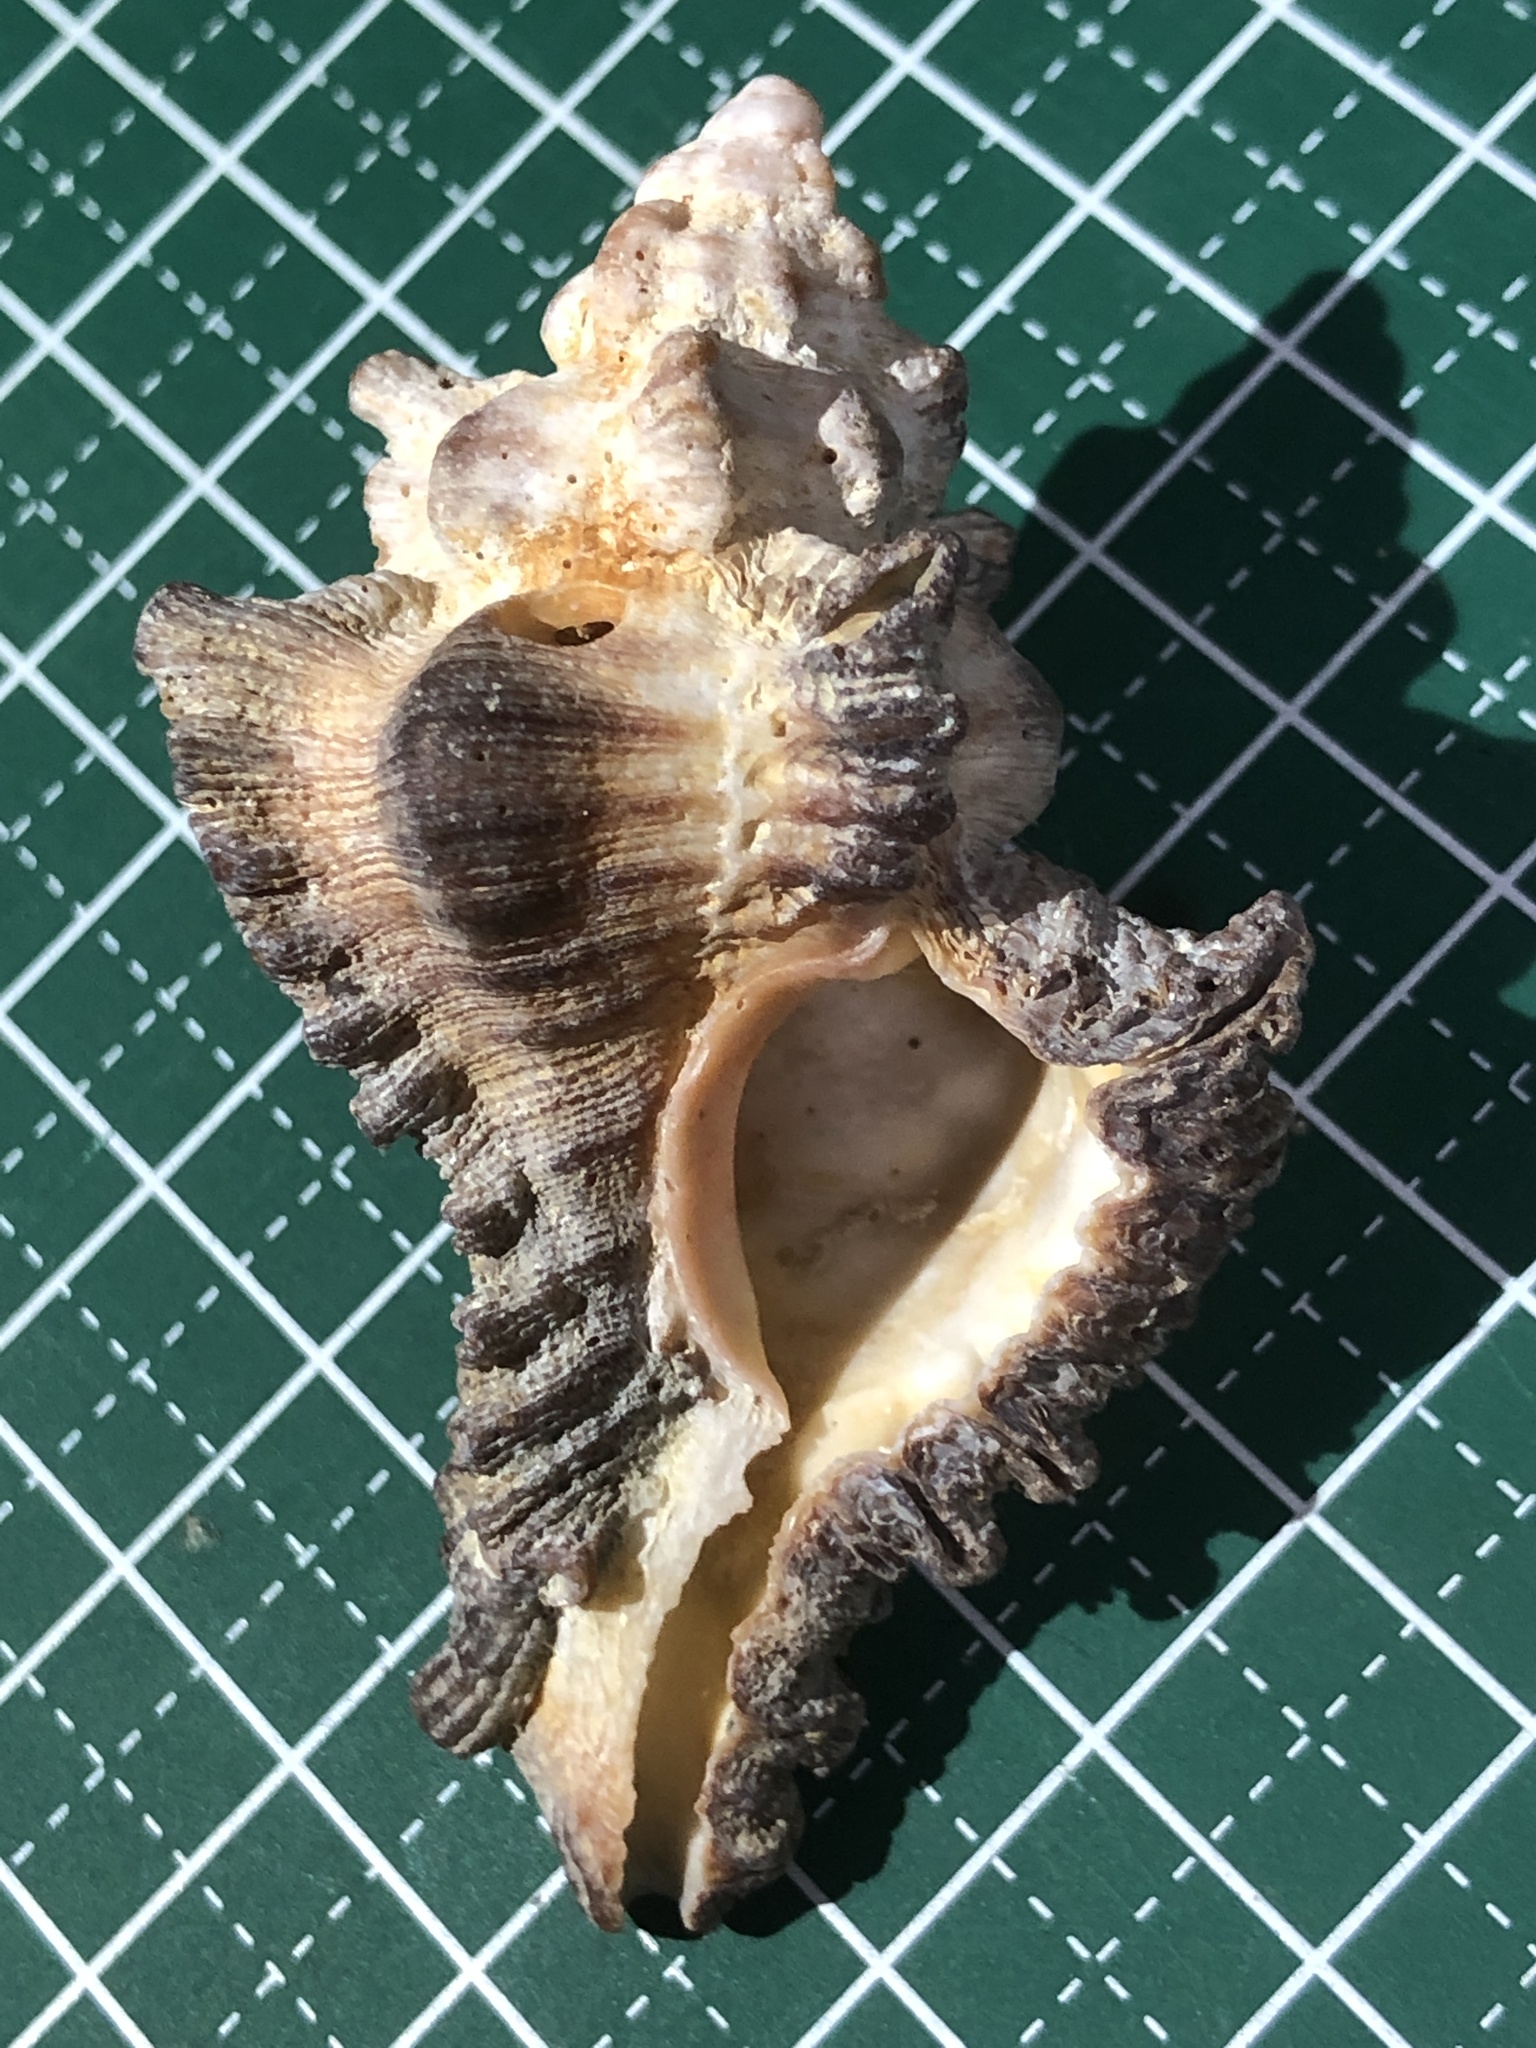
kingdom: Animalia
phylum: Mollusca
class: Gastropoda
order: Neogastropoda
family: Muricidae
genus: Chicoreus
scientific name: Chicoreus brunneus
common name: Adusta murex
